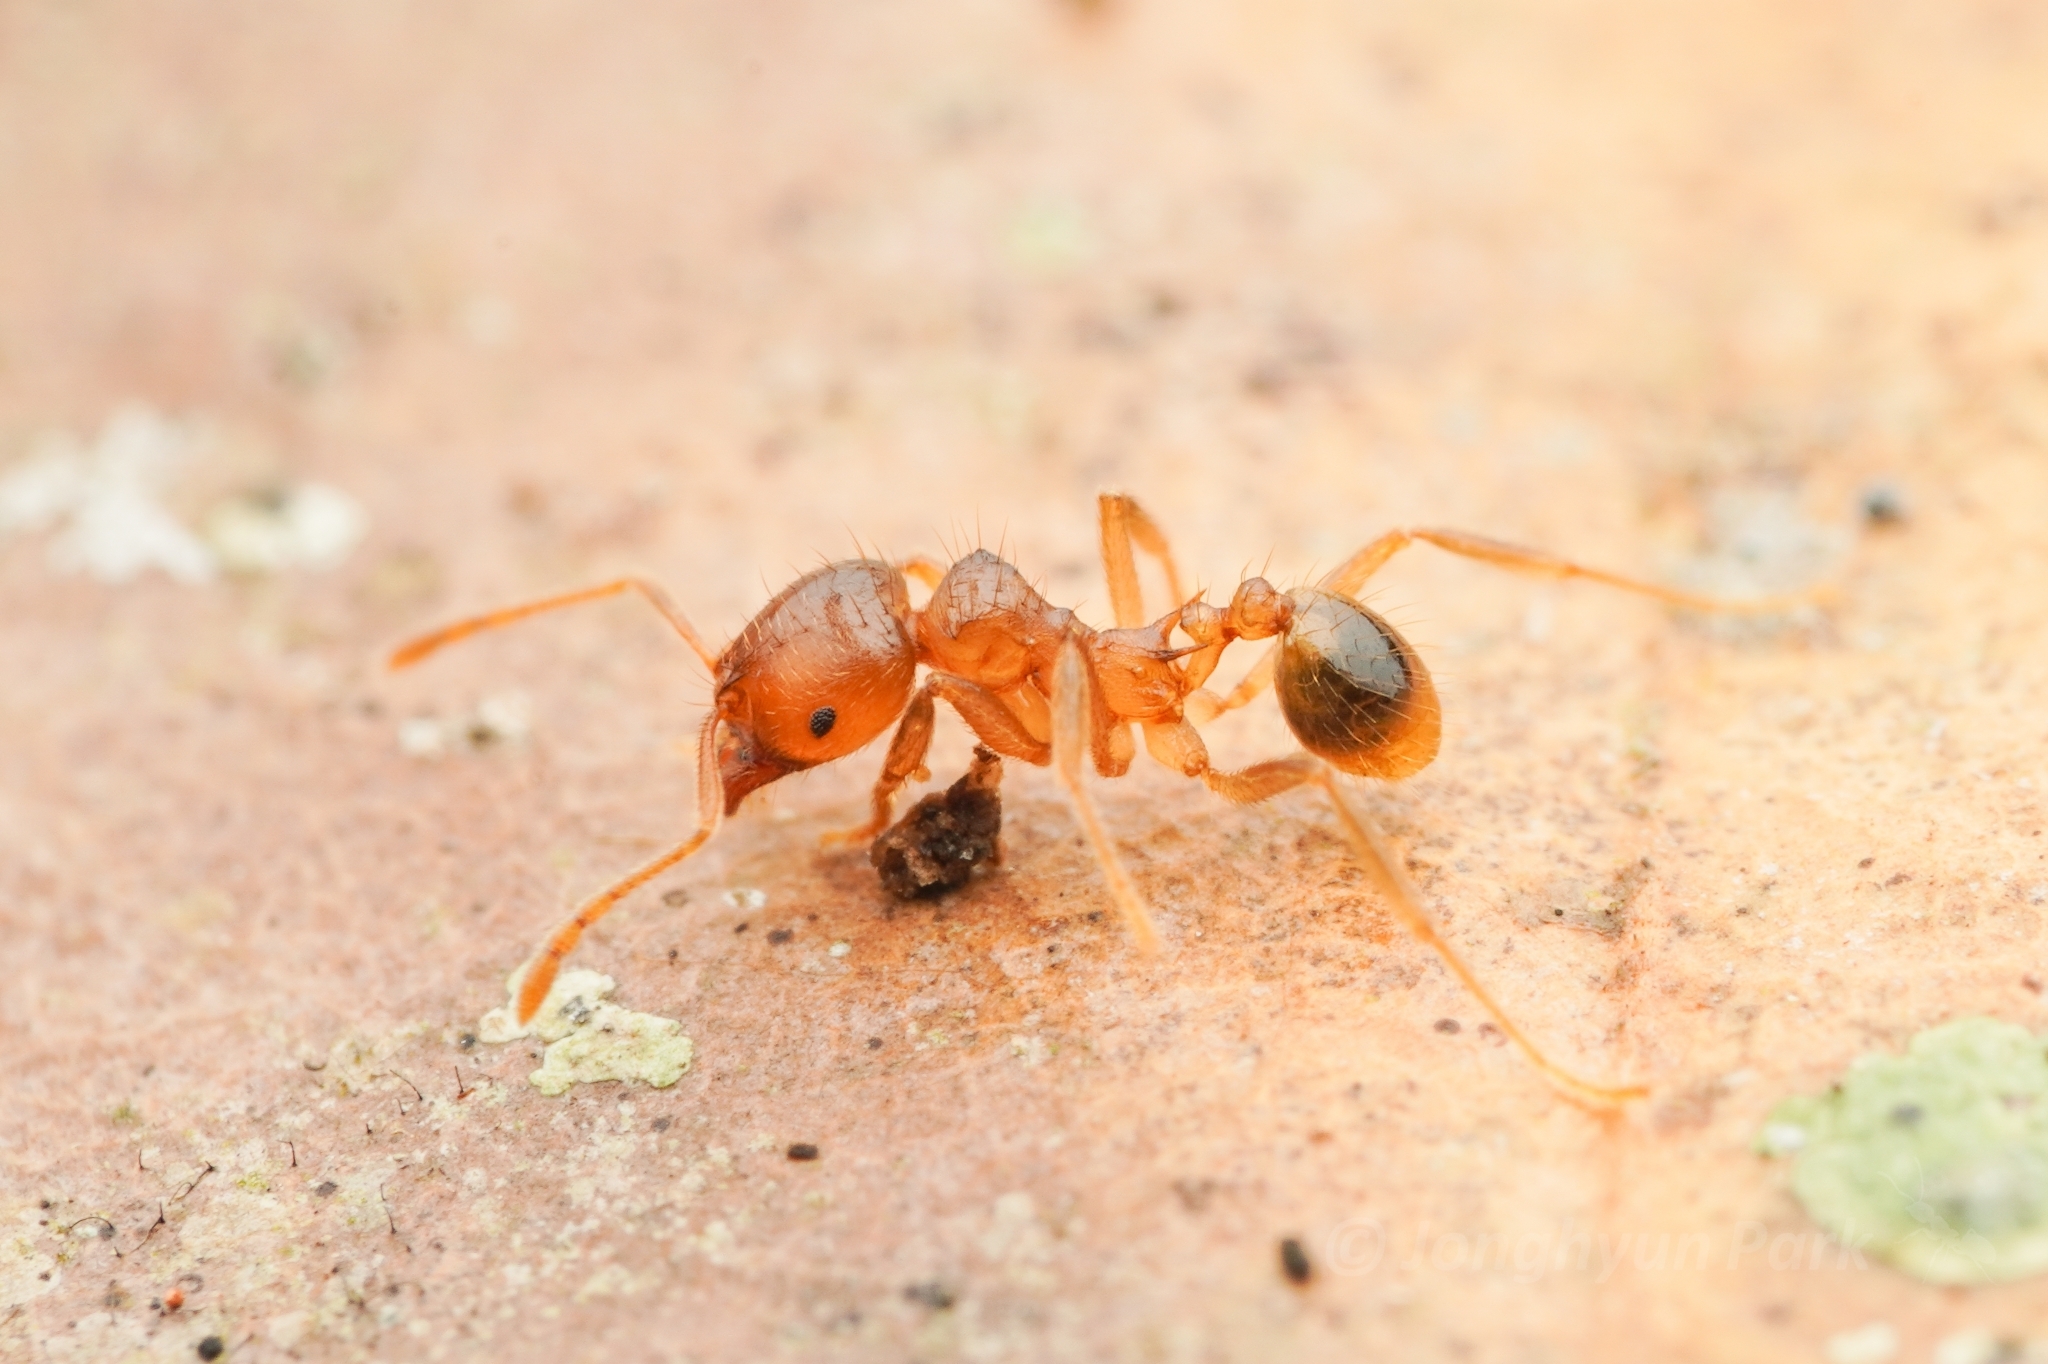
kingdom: Animalia
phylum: Arthropoda
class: Insecta
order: Hymenoptera
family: Formicidae
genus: Lophomyrmex
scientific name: Lophomyrmex bedoti
